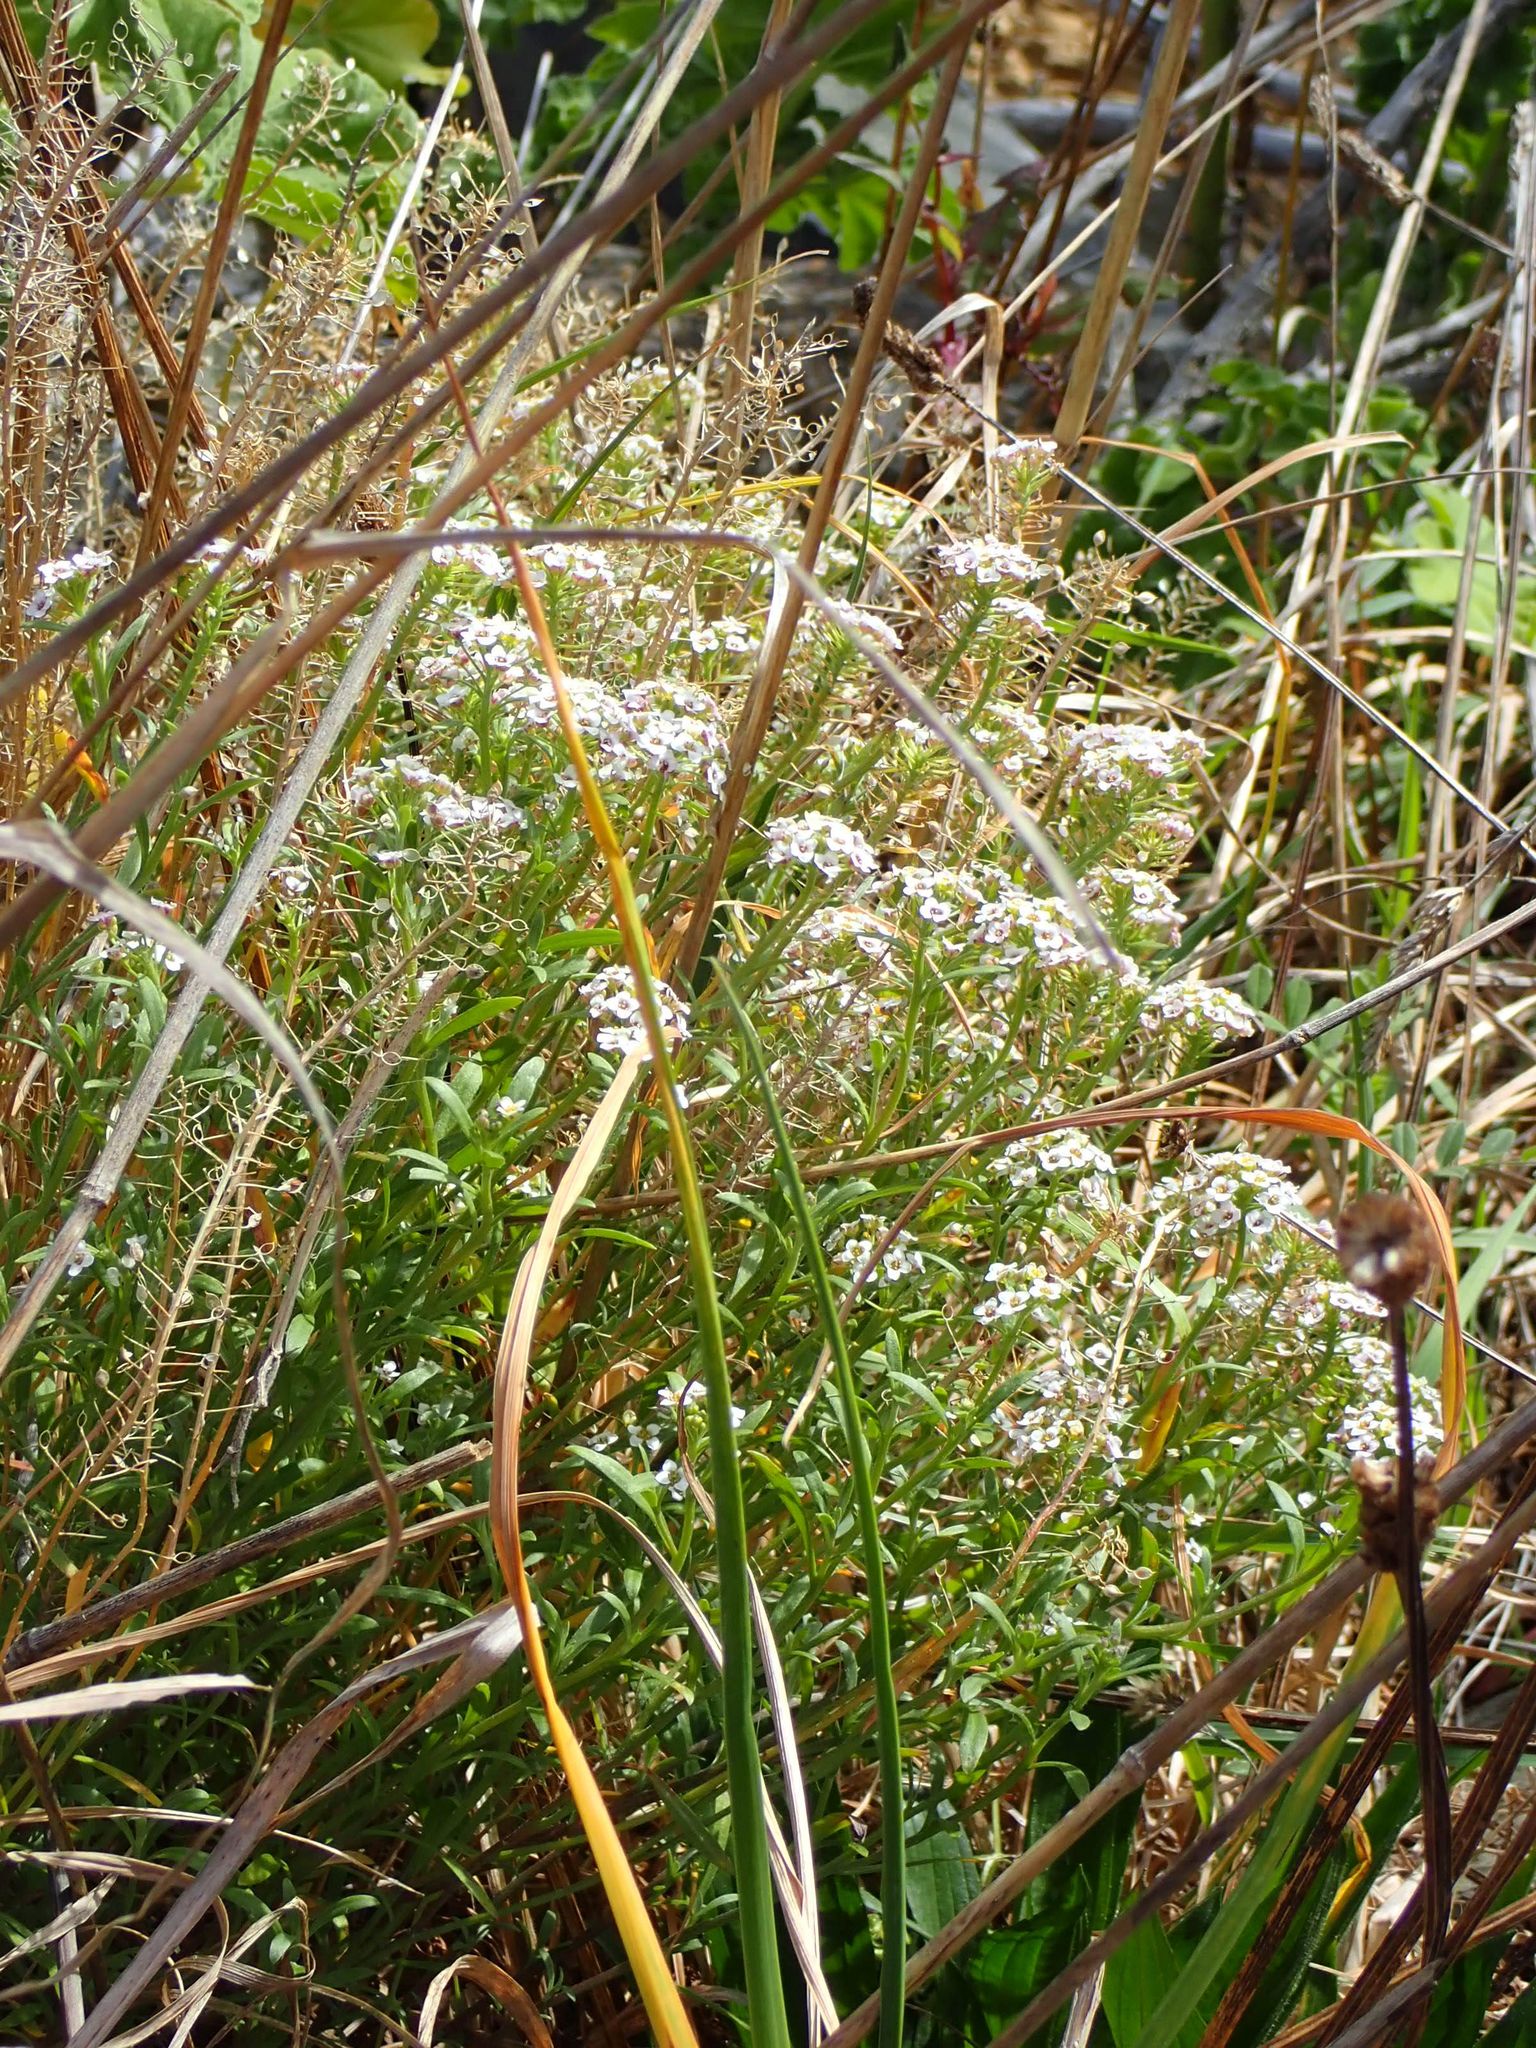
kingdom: Plantae
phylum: Tracheophyta
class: Magnoliopsida
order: Brassicales
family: Brassicaceae
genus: Lobularia
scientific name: Lobularia maritima
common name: Sweet alison
